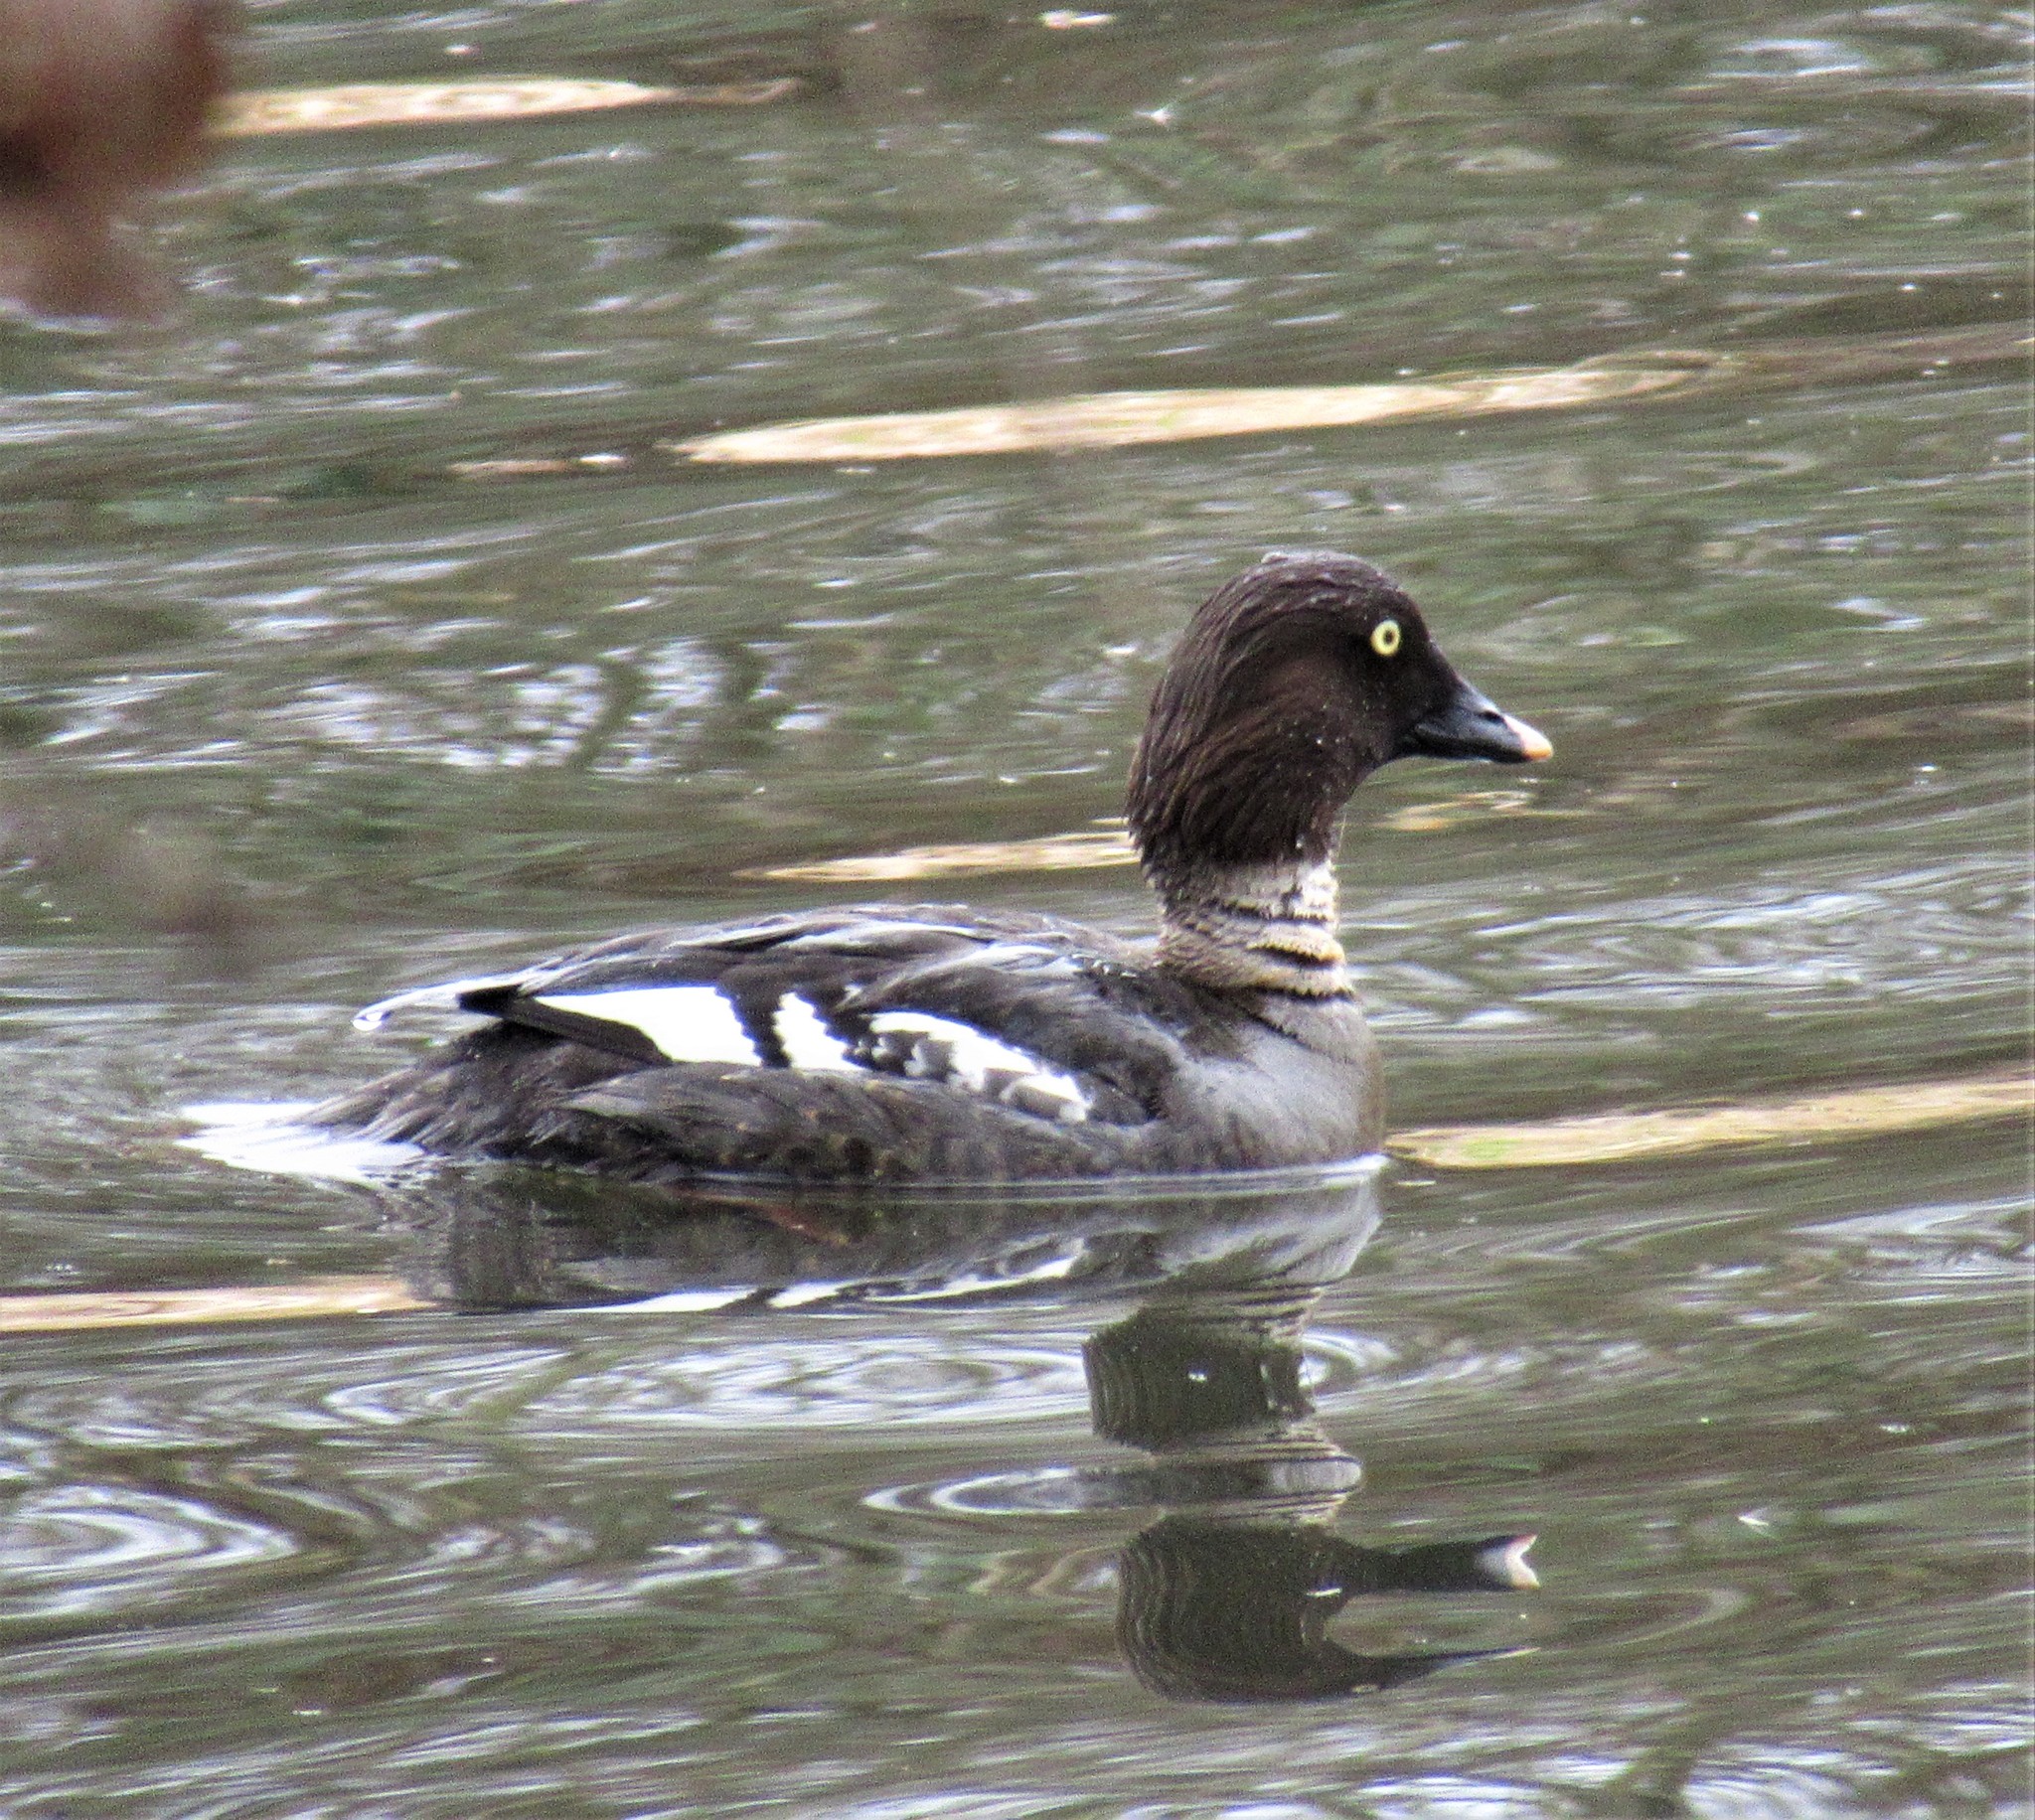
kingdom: Animalia
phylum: Chordata
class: Aves
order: Anseriformes
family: Anatidae
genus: Bucephala
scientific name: Bucephala clangula
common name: Common goldeneye
